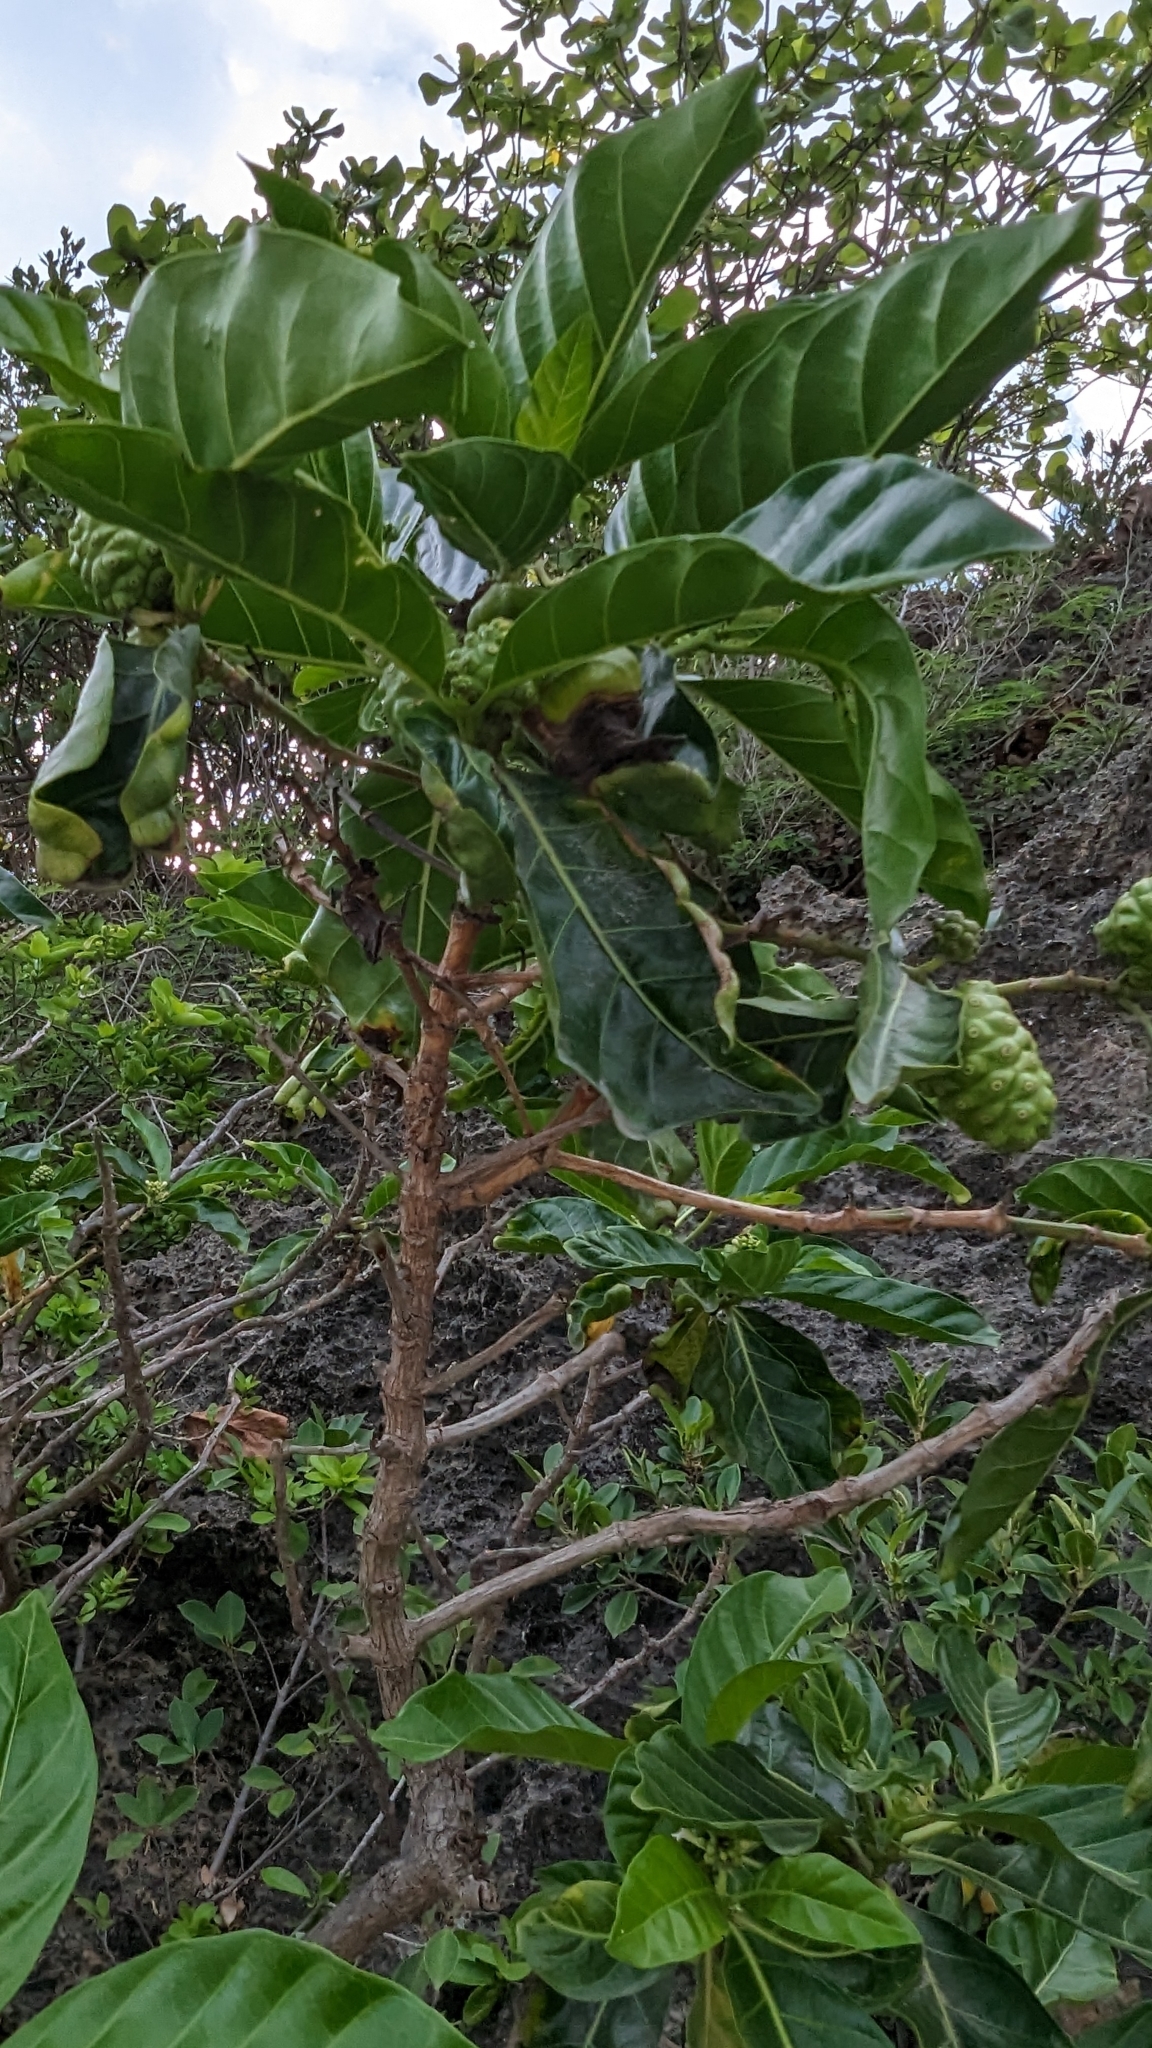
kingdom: Plantae
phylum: Tracheophyta
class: Magnoliopsida
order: Gentianales
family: Rubiaceae
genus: Morinda
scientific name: Morinda citrifolia
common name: Indian-mulberry
